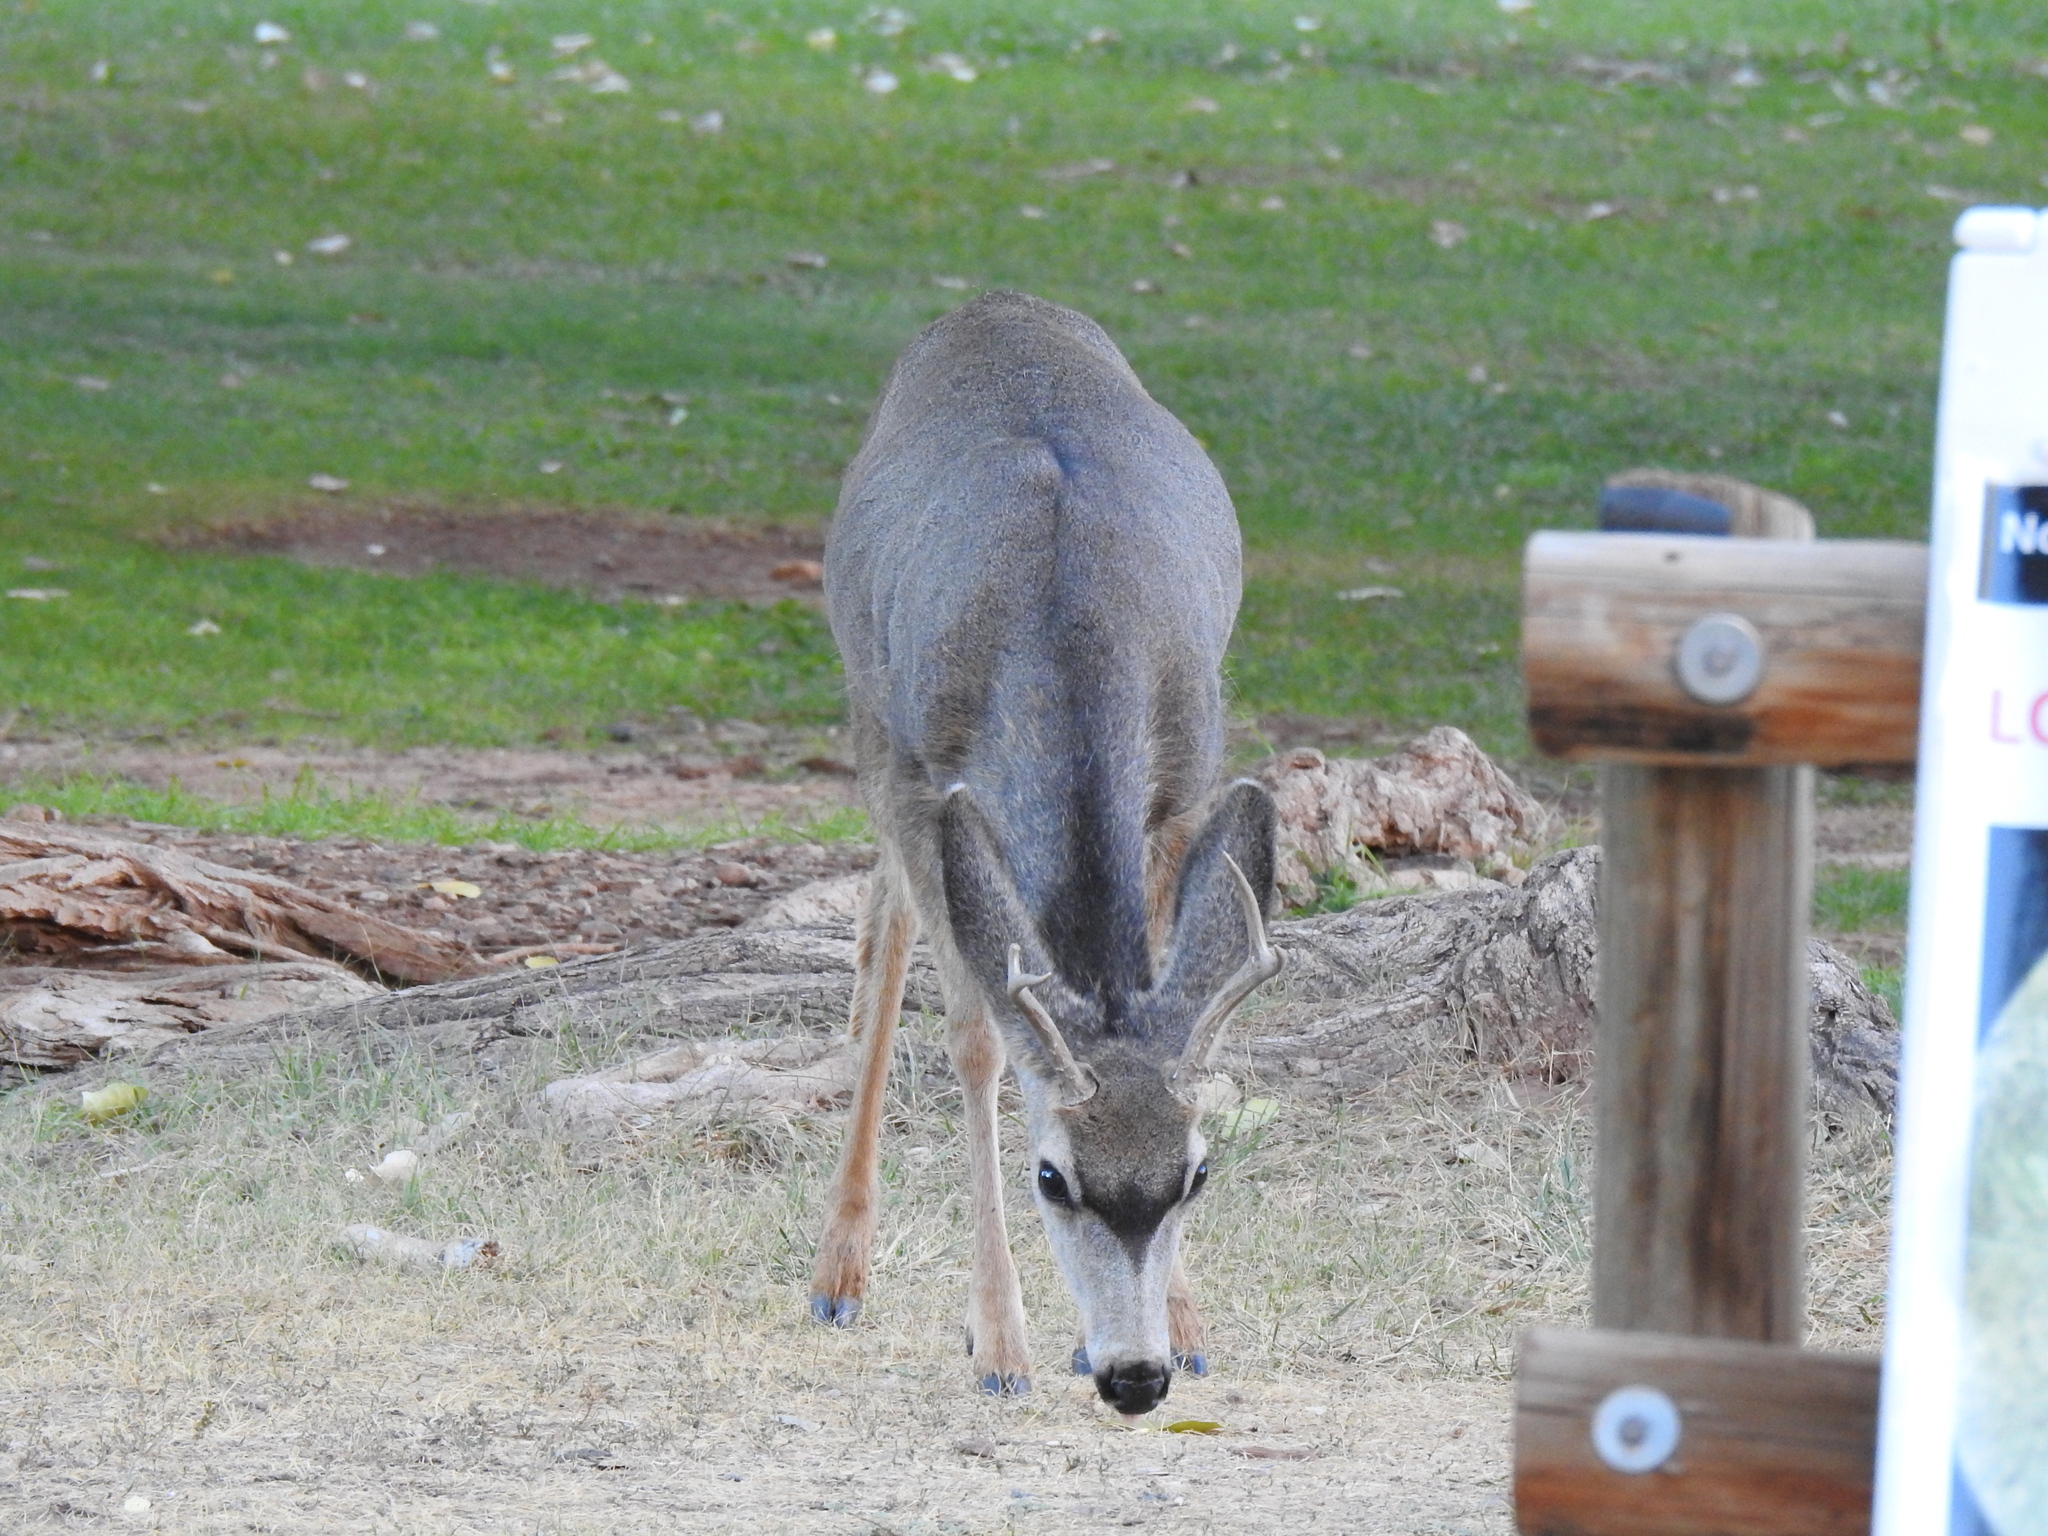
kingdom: Animalia
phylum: Chordata
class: Mammalia
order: Artiodactyla
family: Cervidae
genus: Odocoileus
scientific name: Odocoileus hemionus
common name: Mule deer
